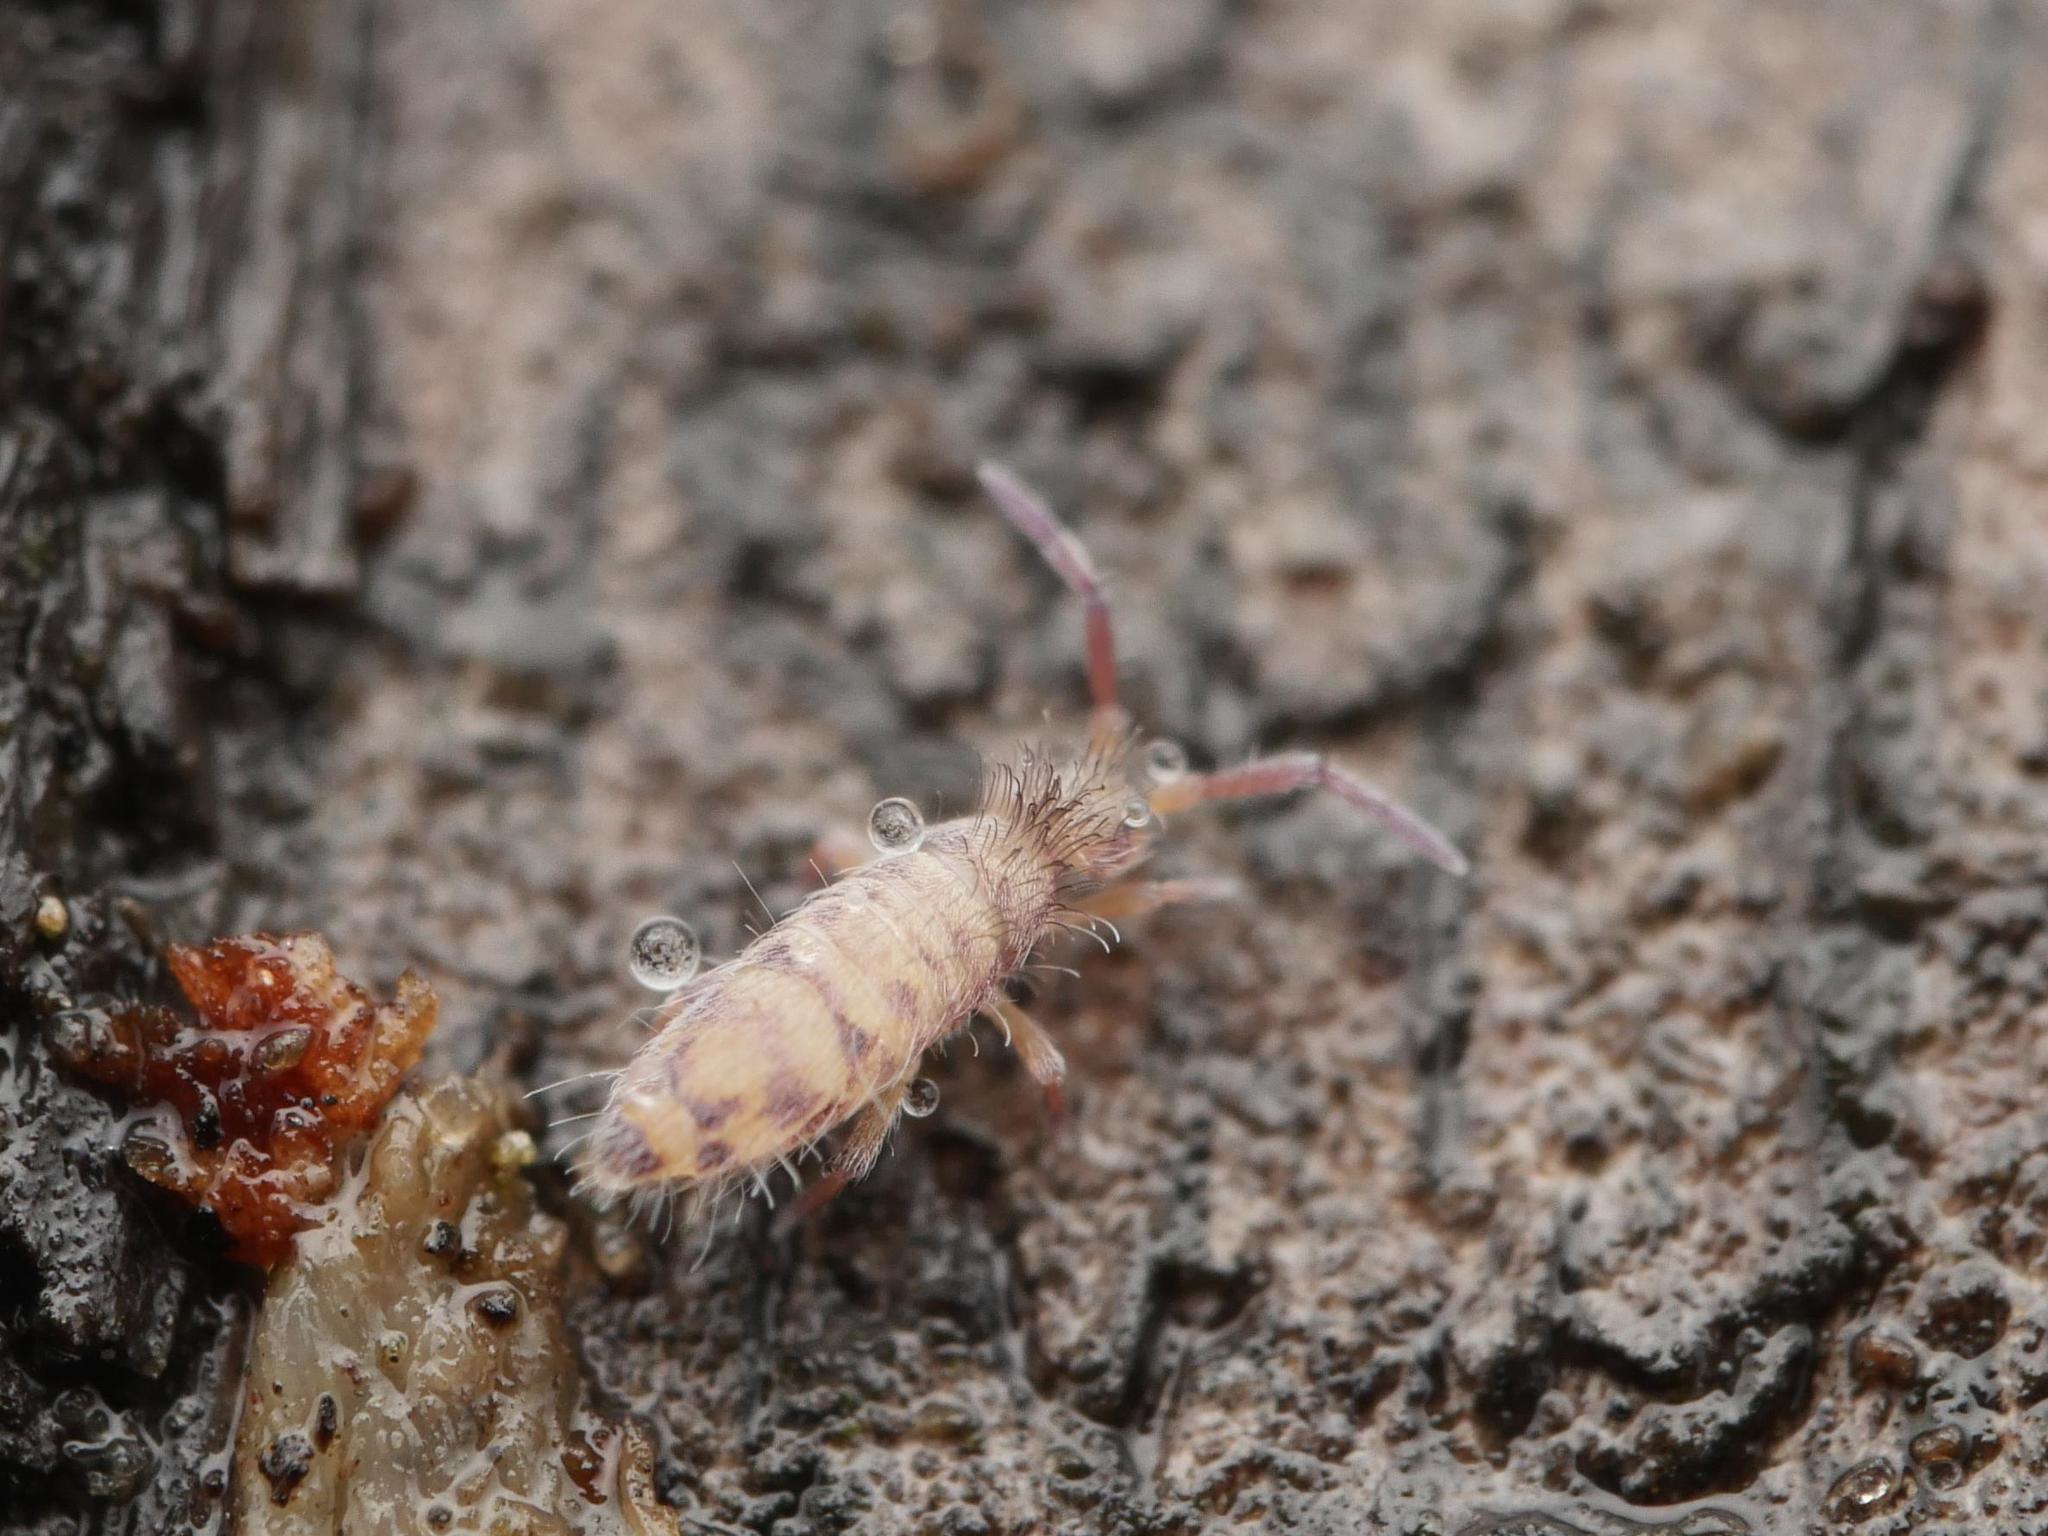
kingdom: Animalia
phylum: Arthropoda
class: Collembola
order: Entomobryomorpha
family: Entomobryidae
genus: Entomobrya
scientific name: Entomobrya multifasciata
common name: Springtail
